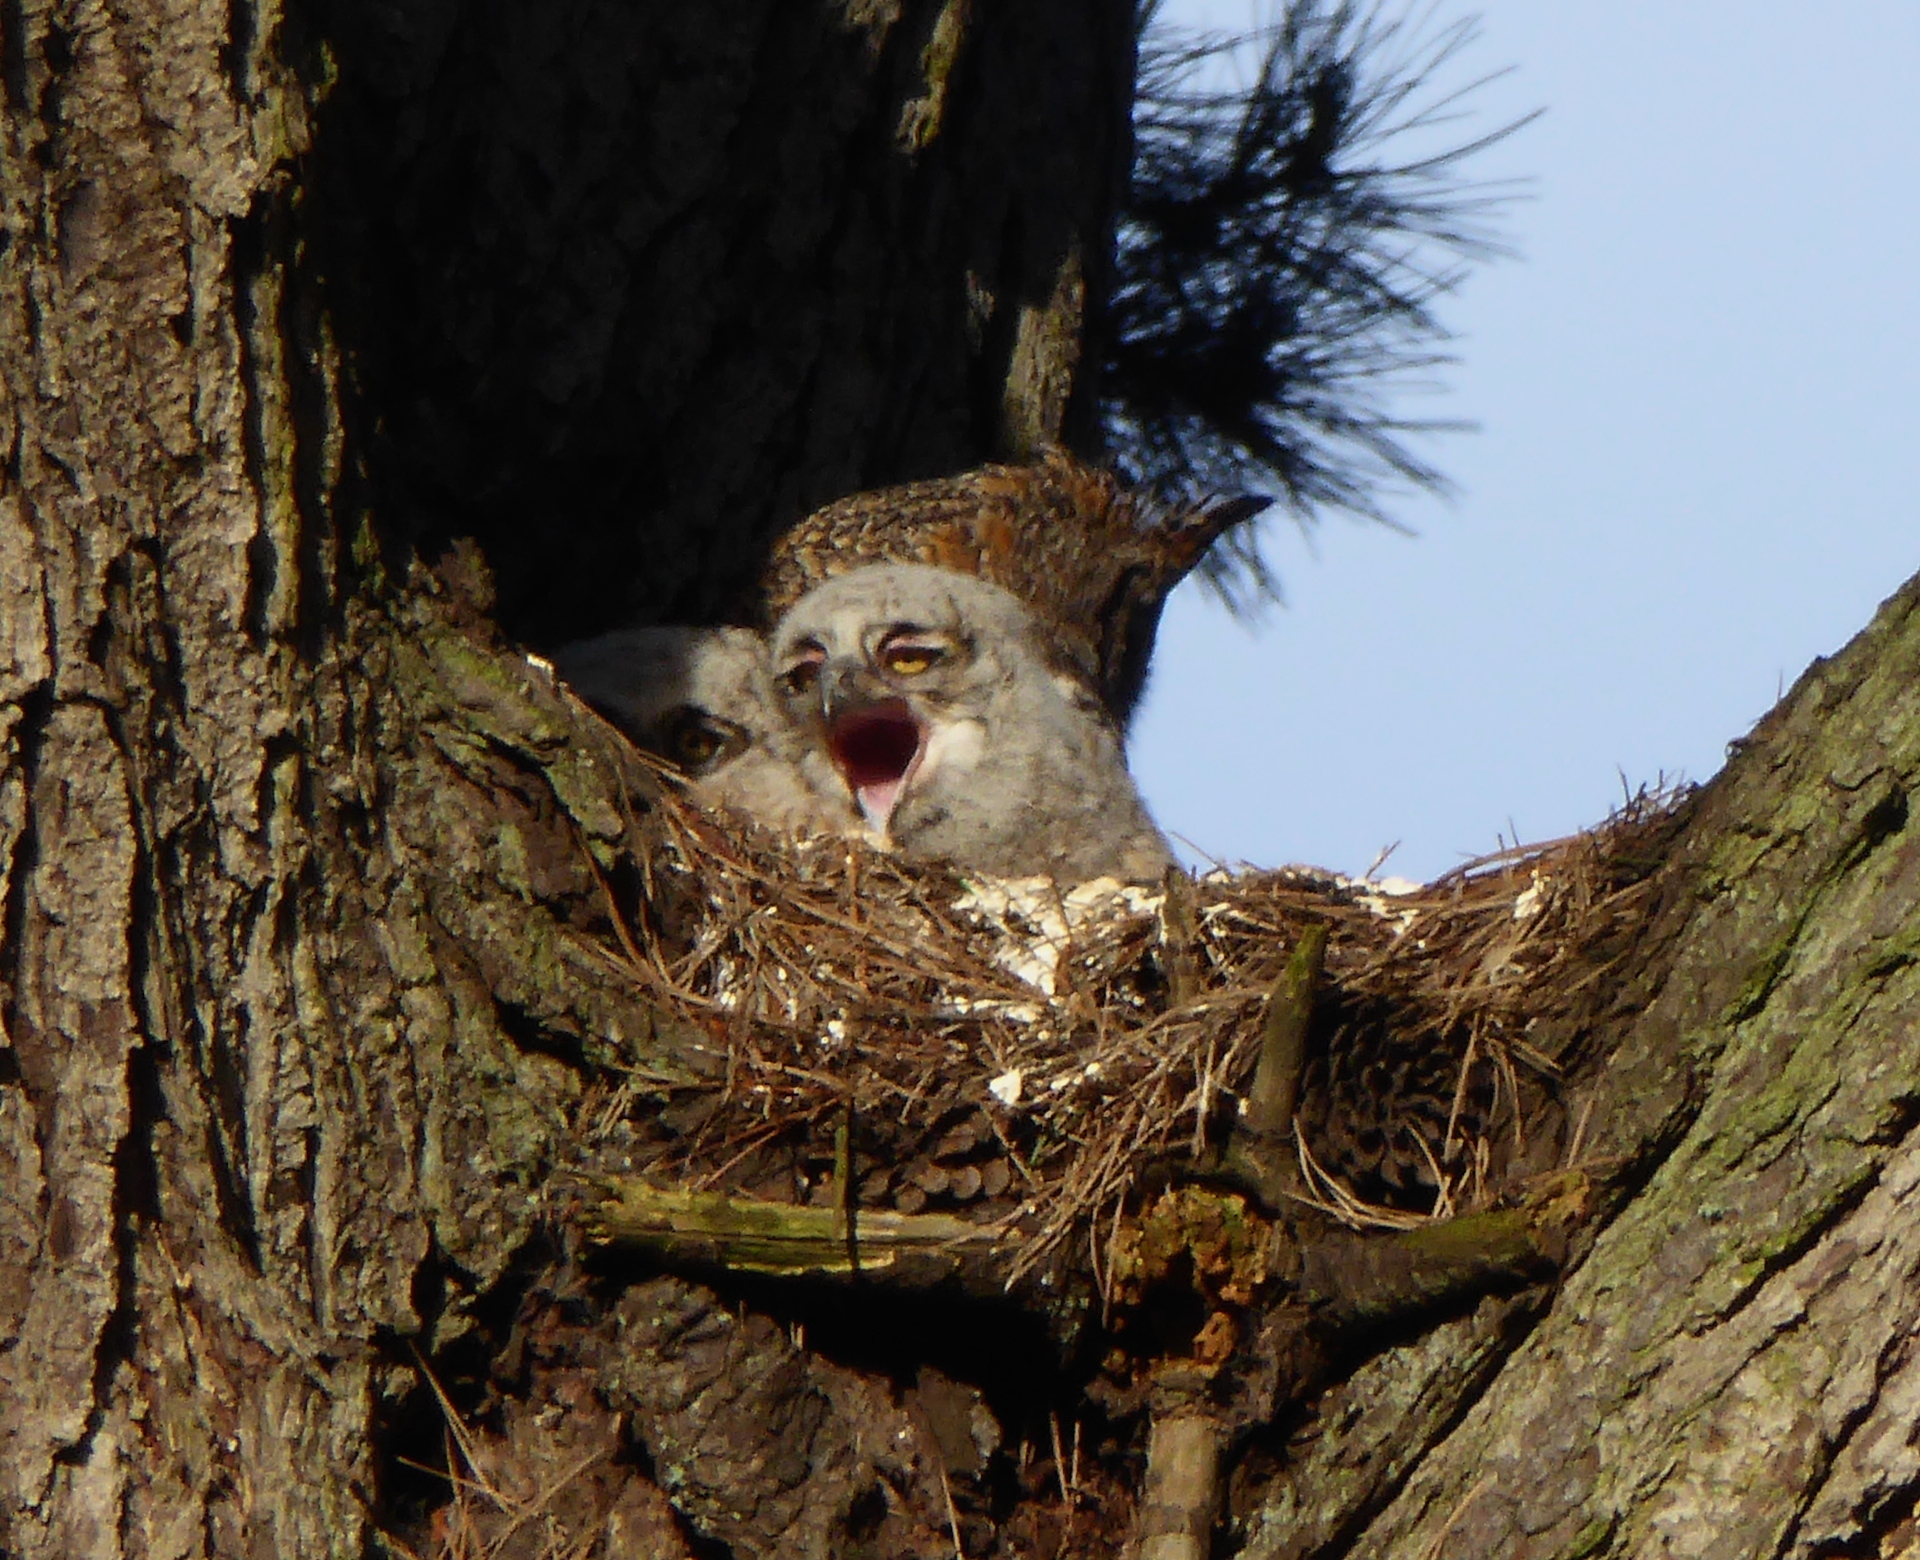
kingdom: Animalia
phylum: Chordata
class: Aves
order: Strigiformes
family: Strigidae
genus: Bubo
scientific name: Bubo virginianus
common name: Great horned owl
